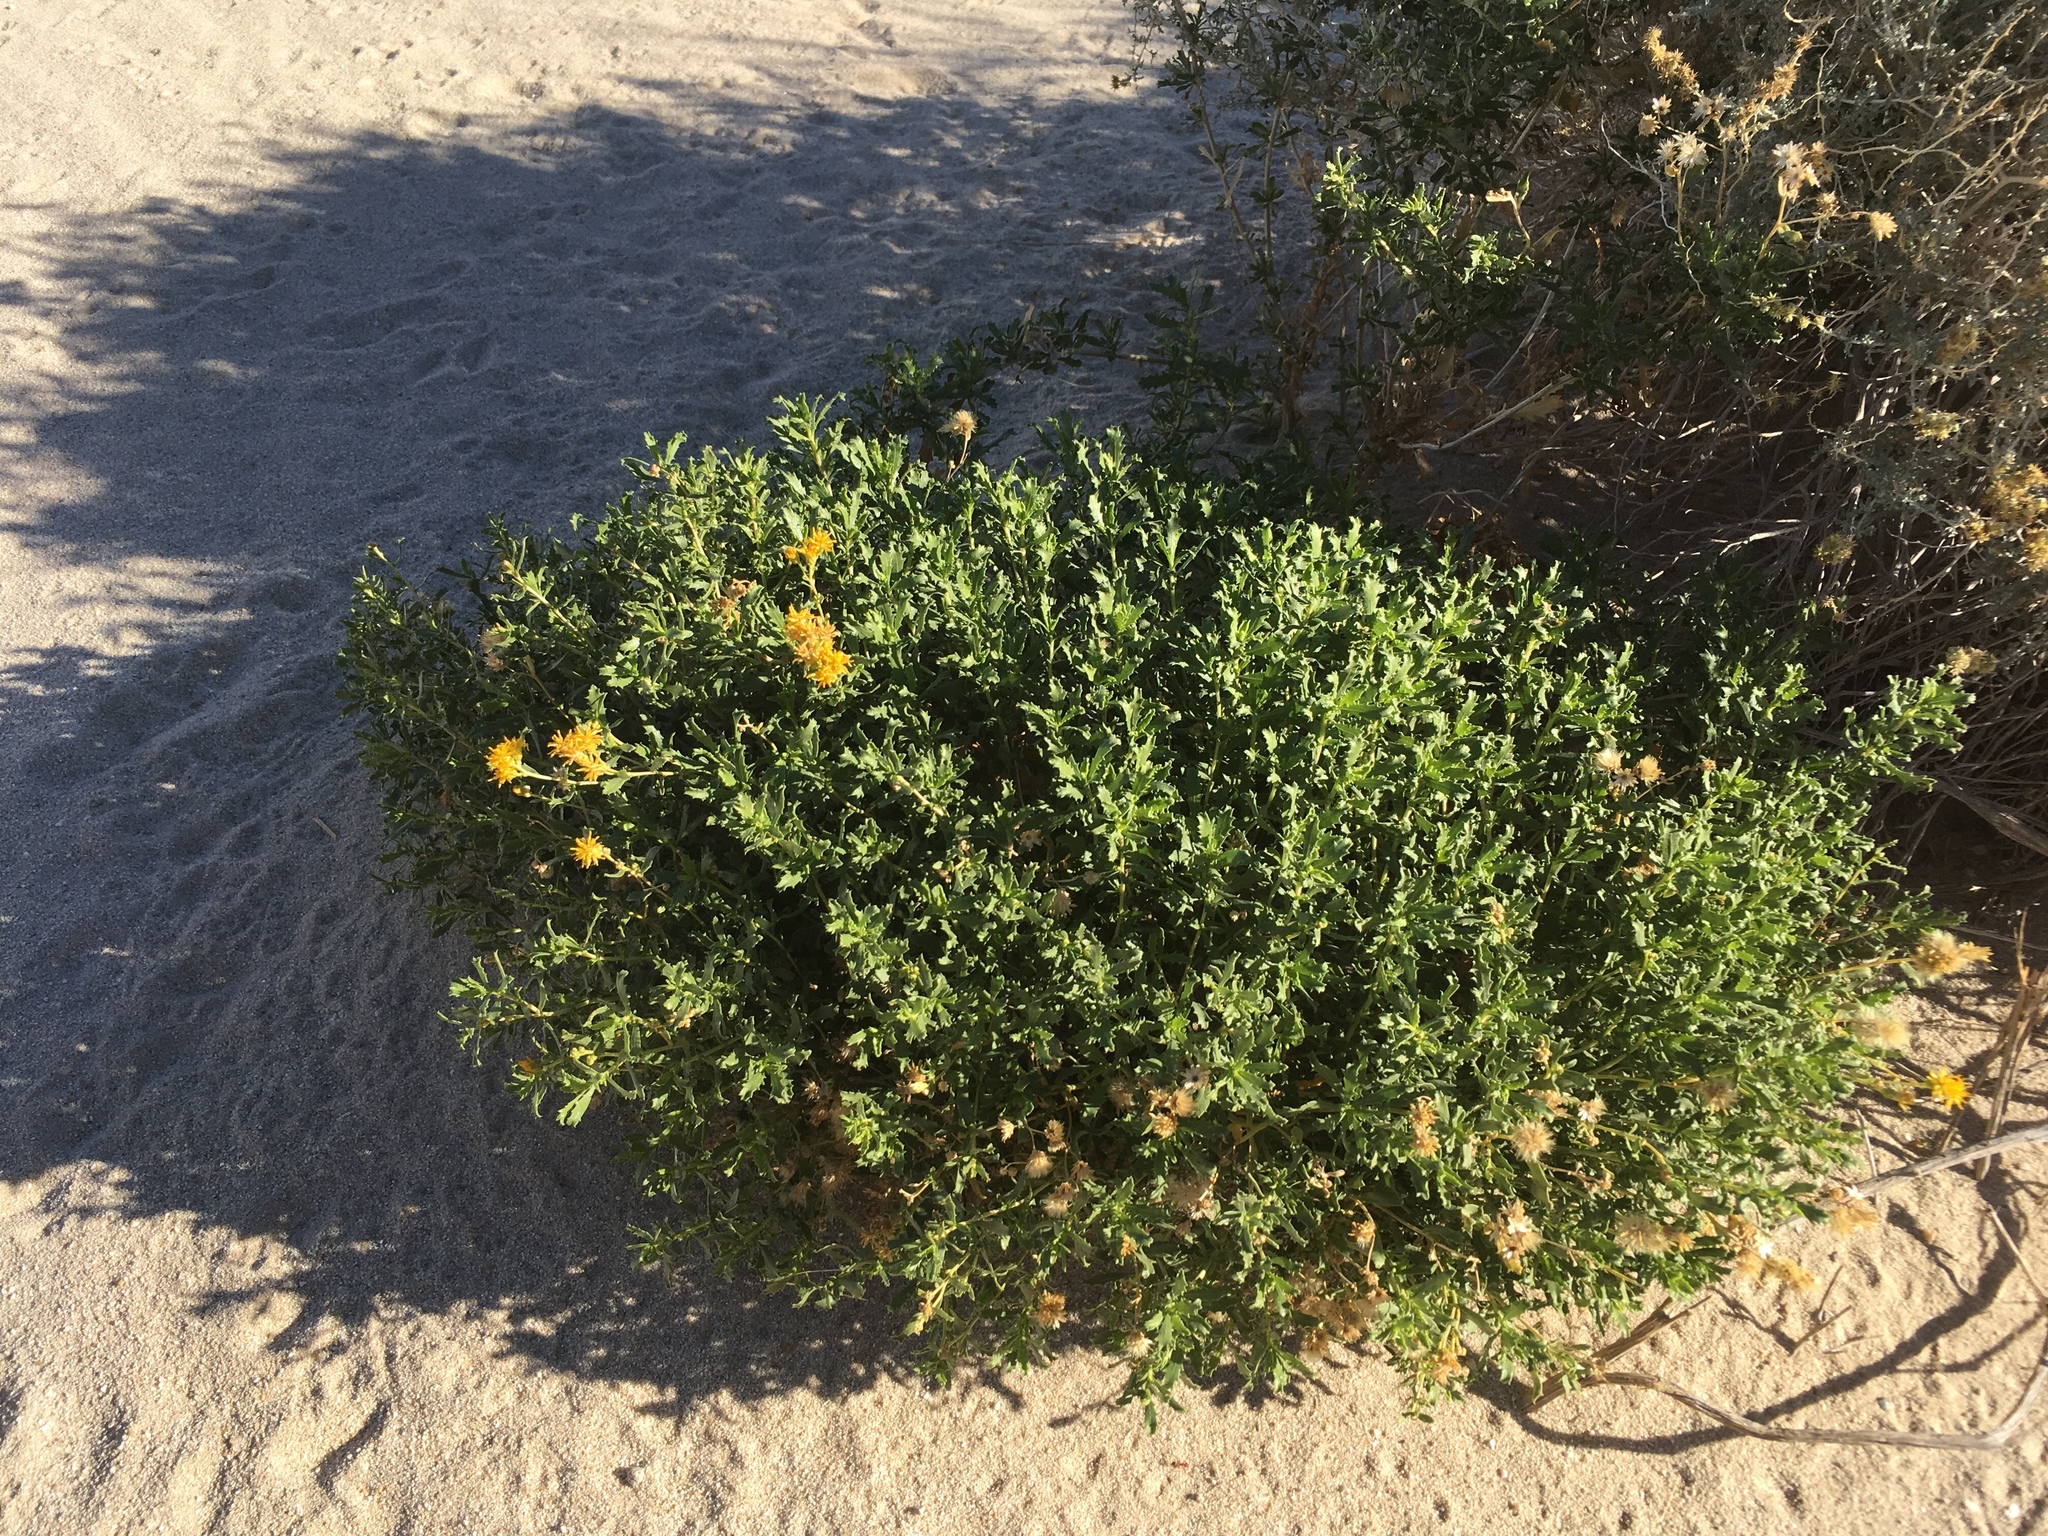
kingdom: Plantae
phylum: Tracheophyta
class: Magnoliopsida
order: Asterales
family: Asteraceae
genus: Isocoma
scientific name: Isocoma acradenia
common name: Alkali jimmyweed
